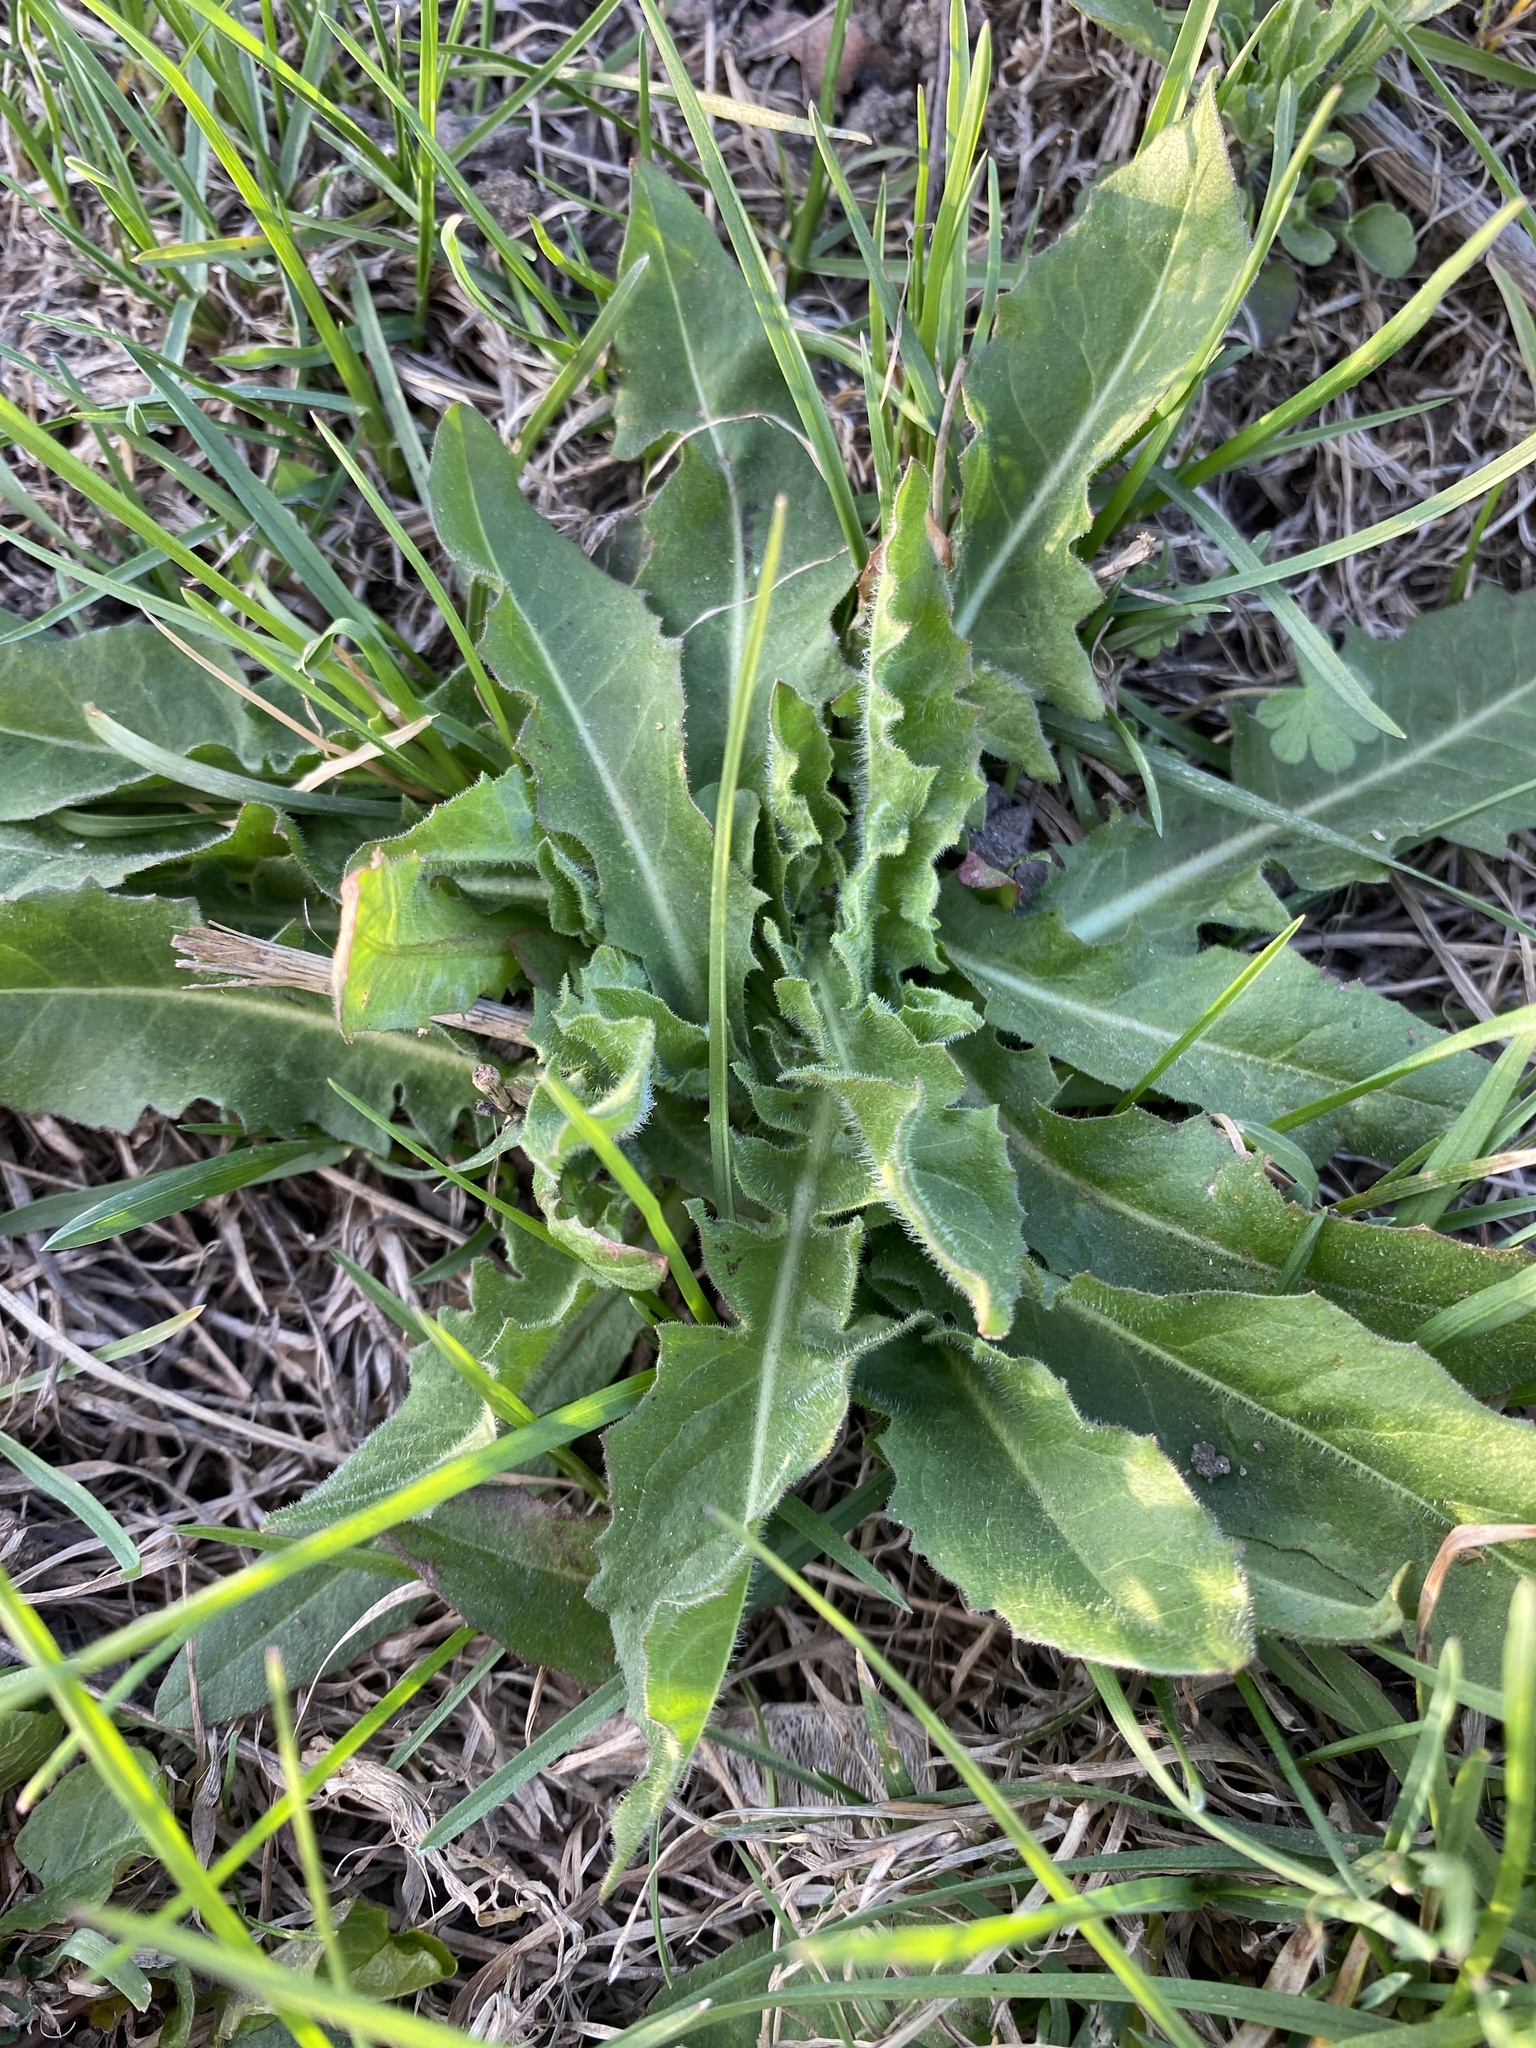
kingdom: Plantae
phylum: Tracheophyta
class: Magnoliopsida
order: Asterales
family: Asteraceae
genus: Cichorium
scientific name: Cichorium intybus
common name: Chicory
